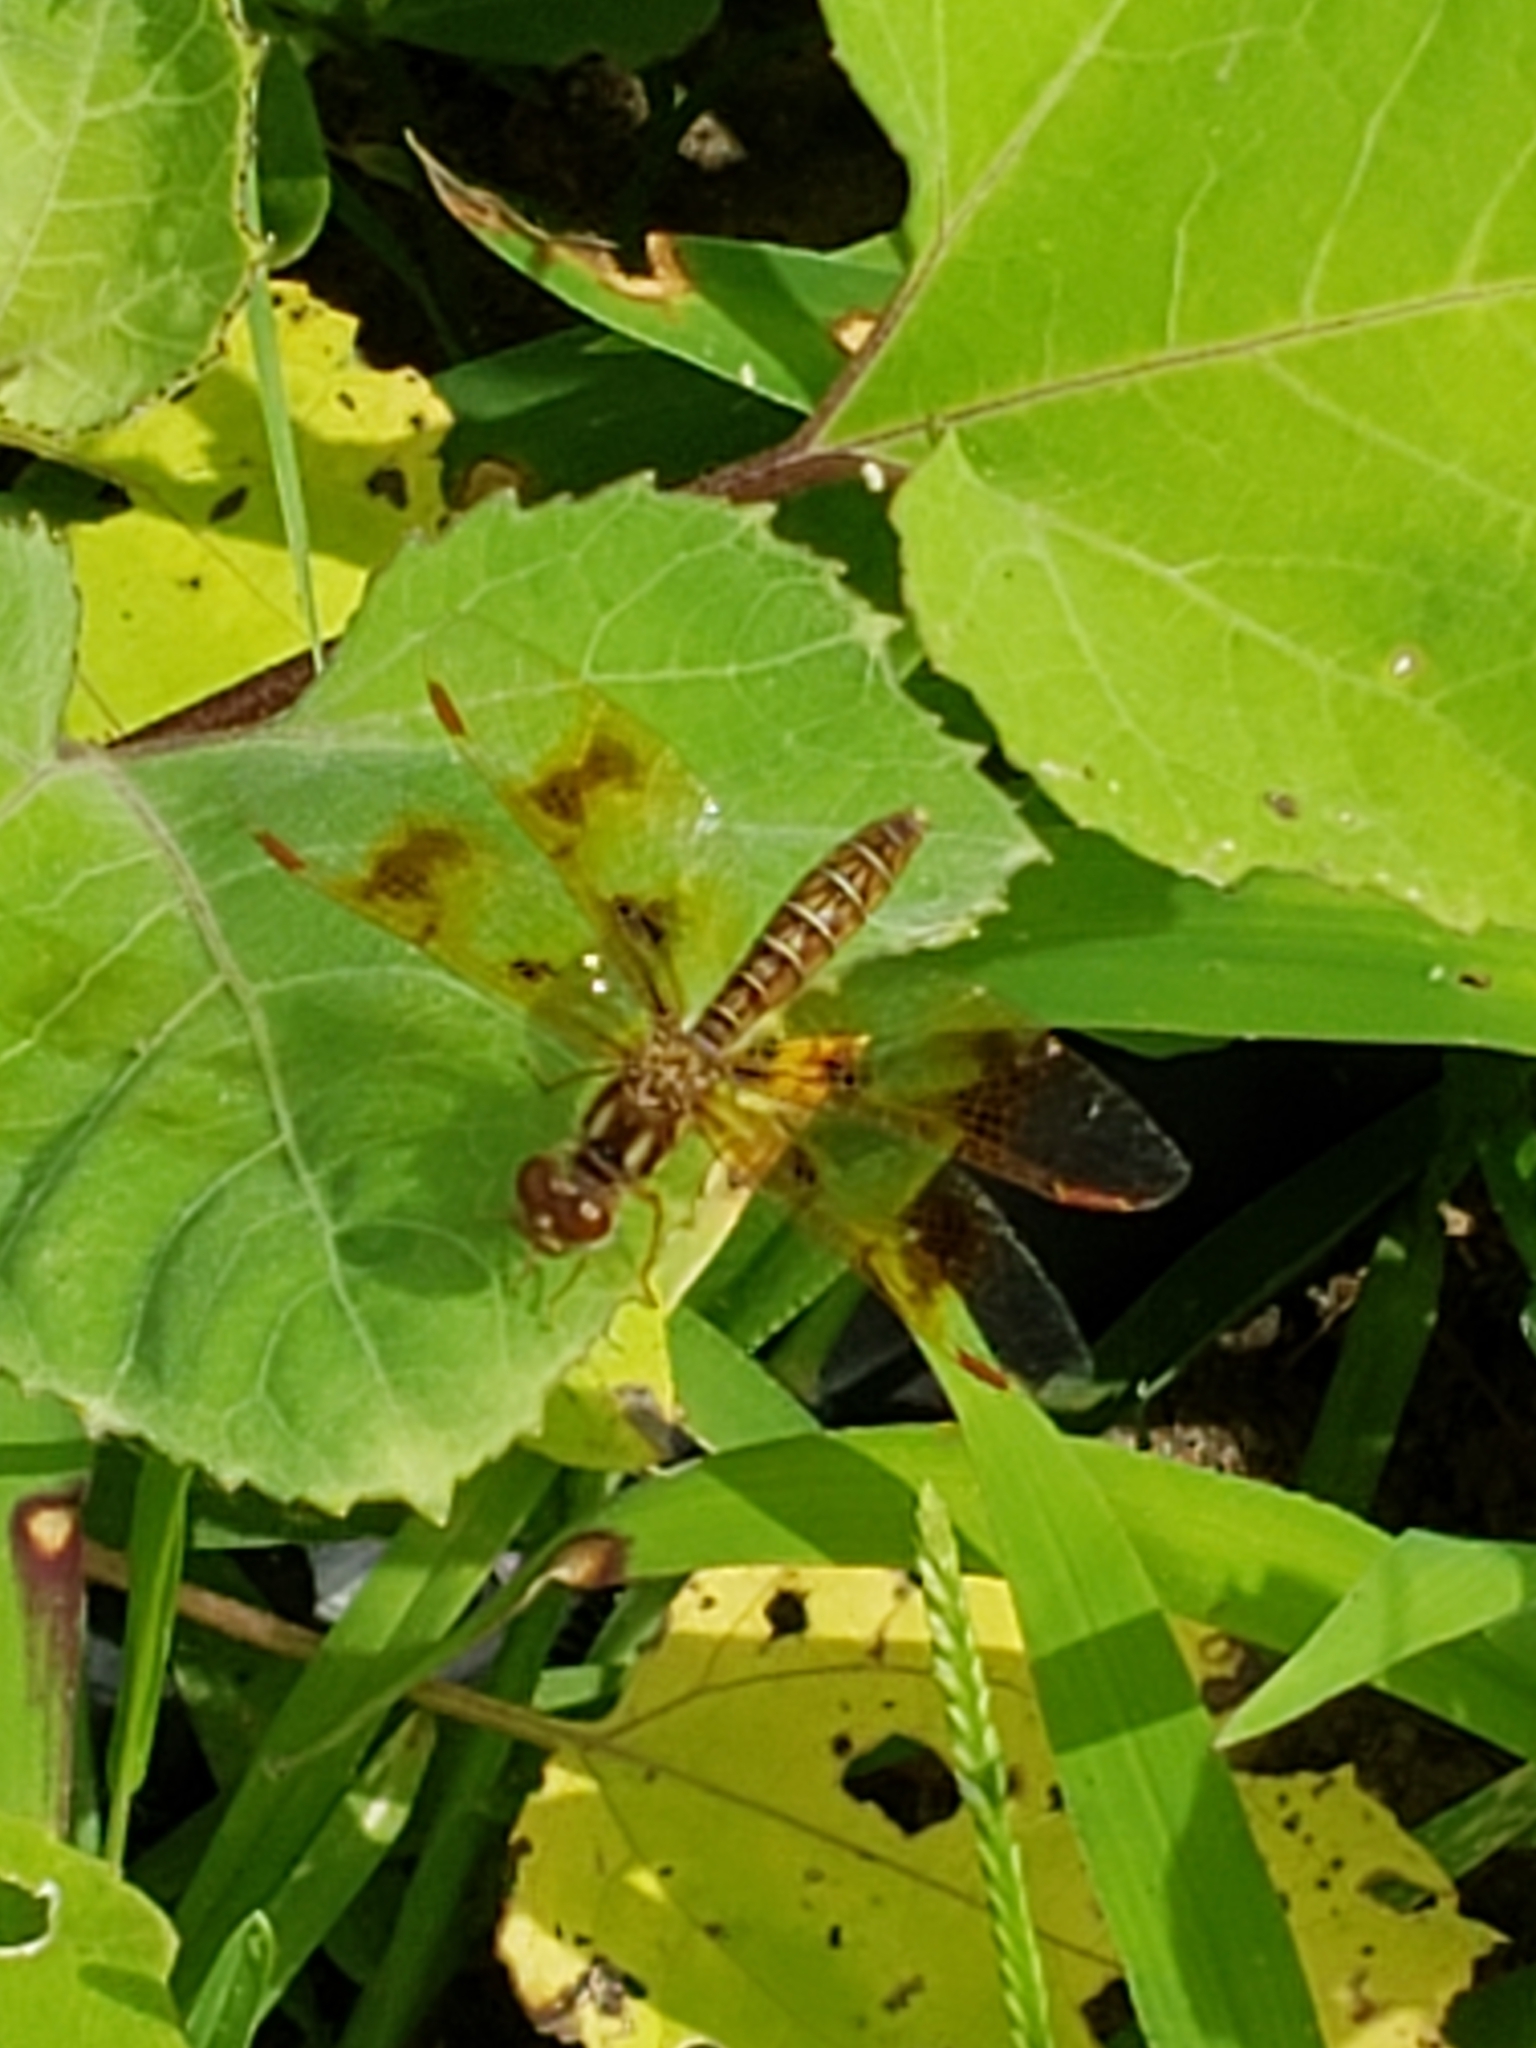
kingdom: Animalia
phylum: Arthropoda
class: Insecta
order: Odonata
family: Libellulidae
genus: Perithemis
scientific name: Perithemis tenera
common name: Eastern amberwing
